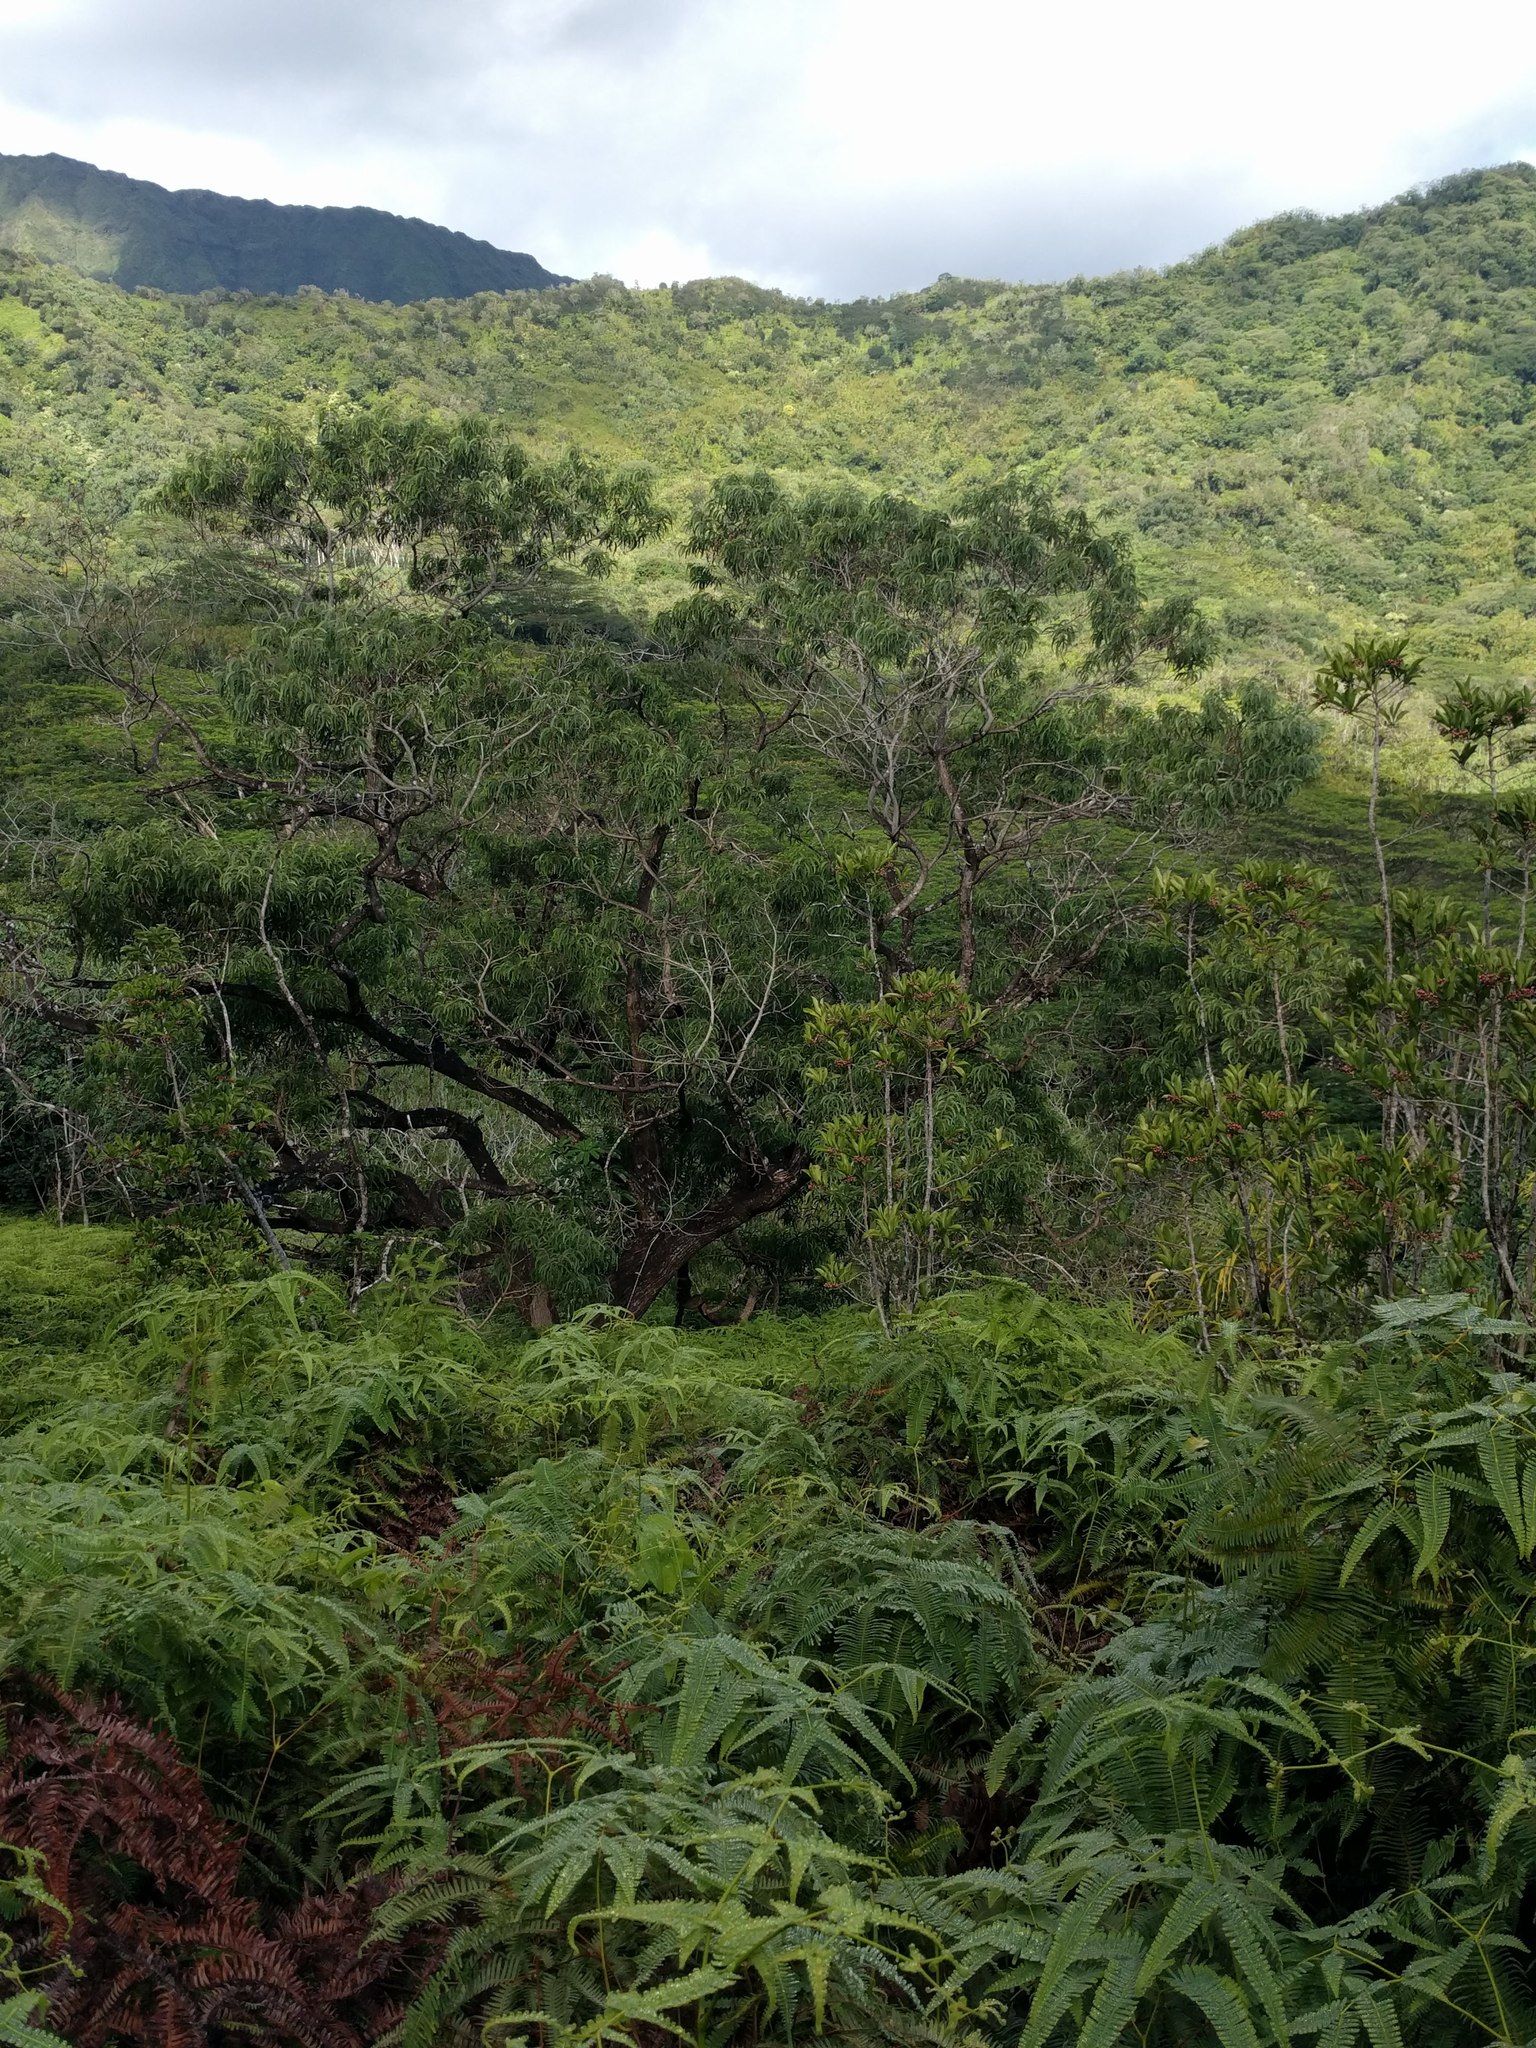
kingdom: Plantae
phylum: Tracheophyta
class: Magnoliopsida
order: Fabales
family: Fabaceae
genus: Acacia
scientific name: Acacia koa
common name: Gray koa
